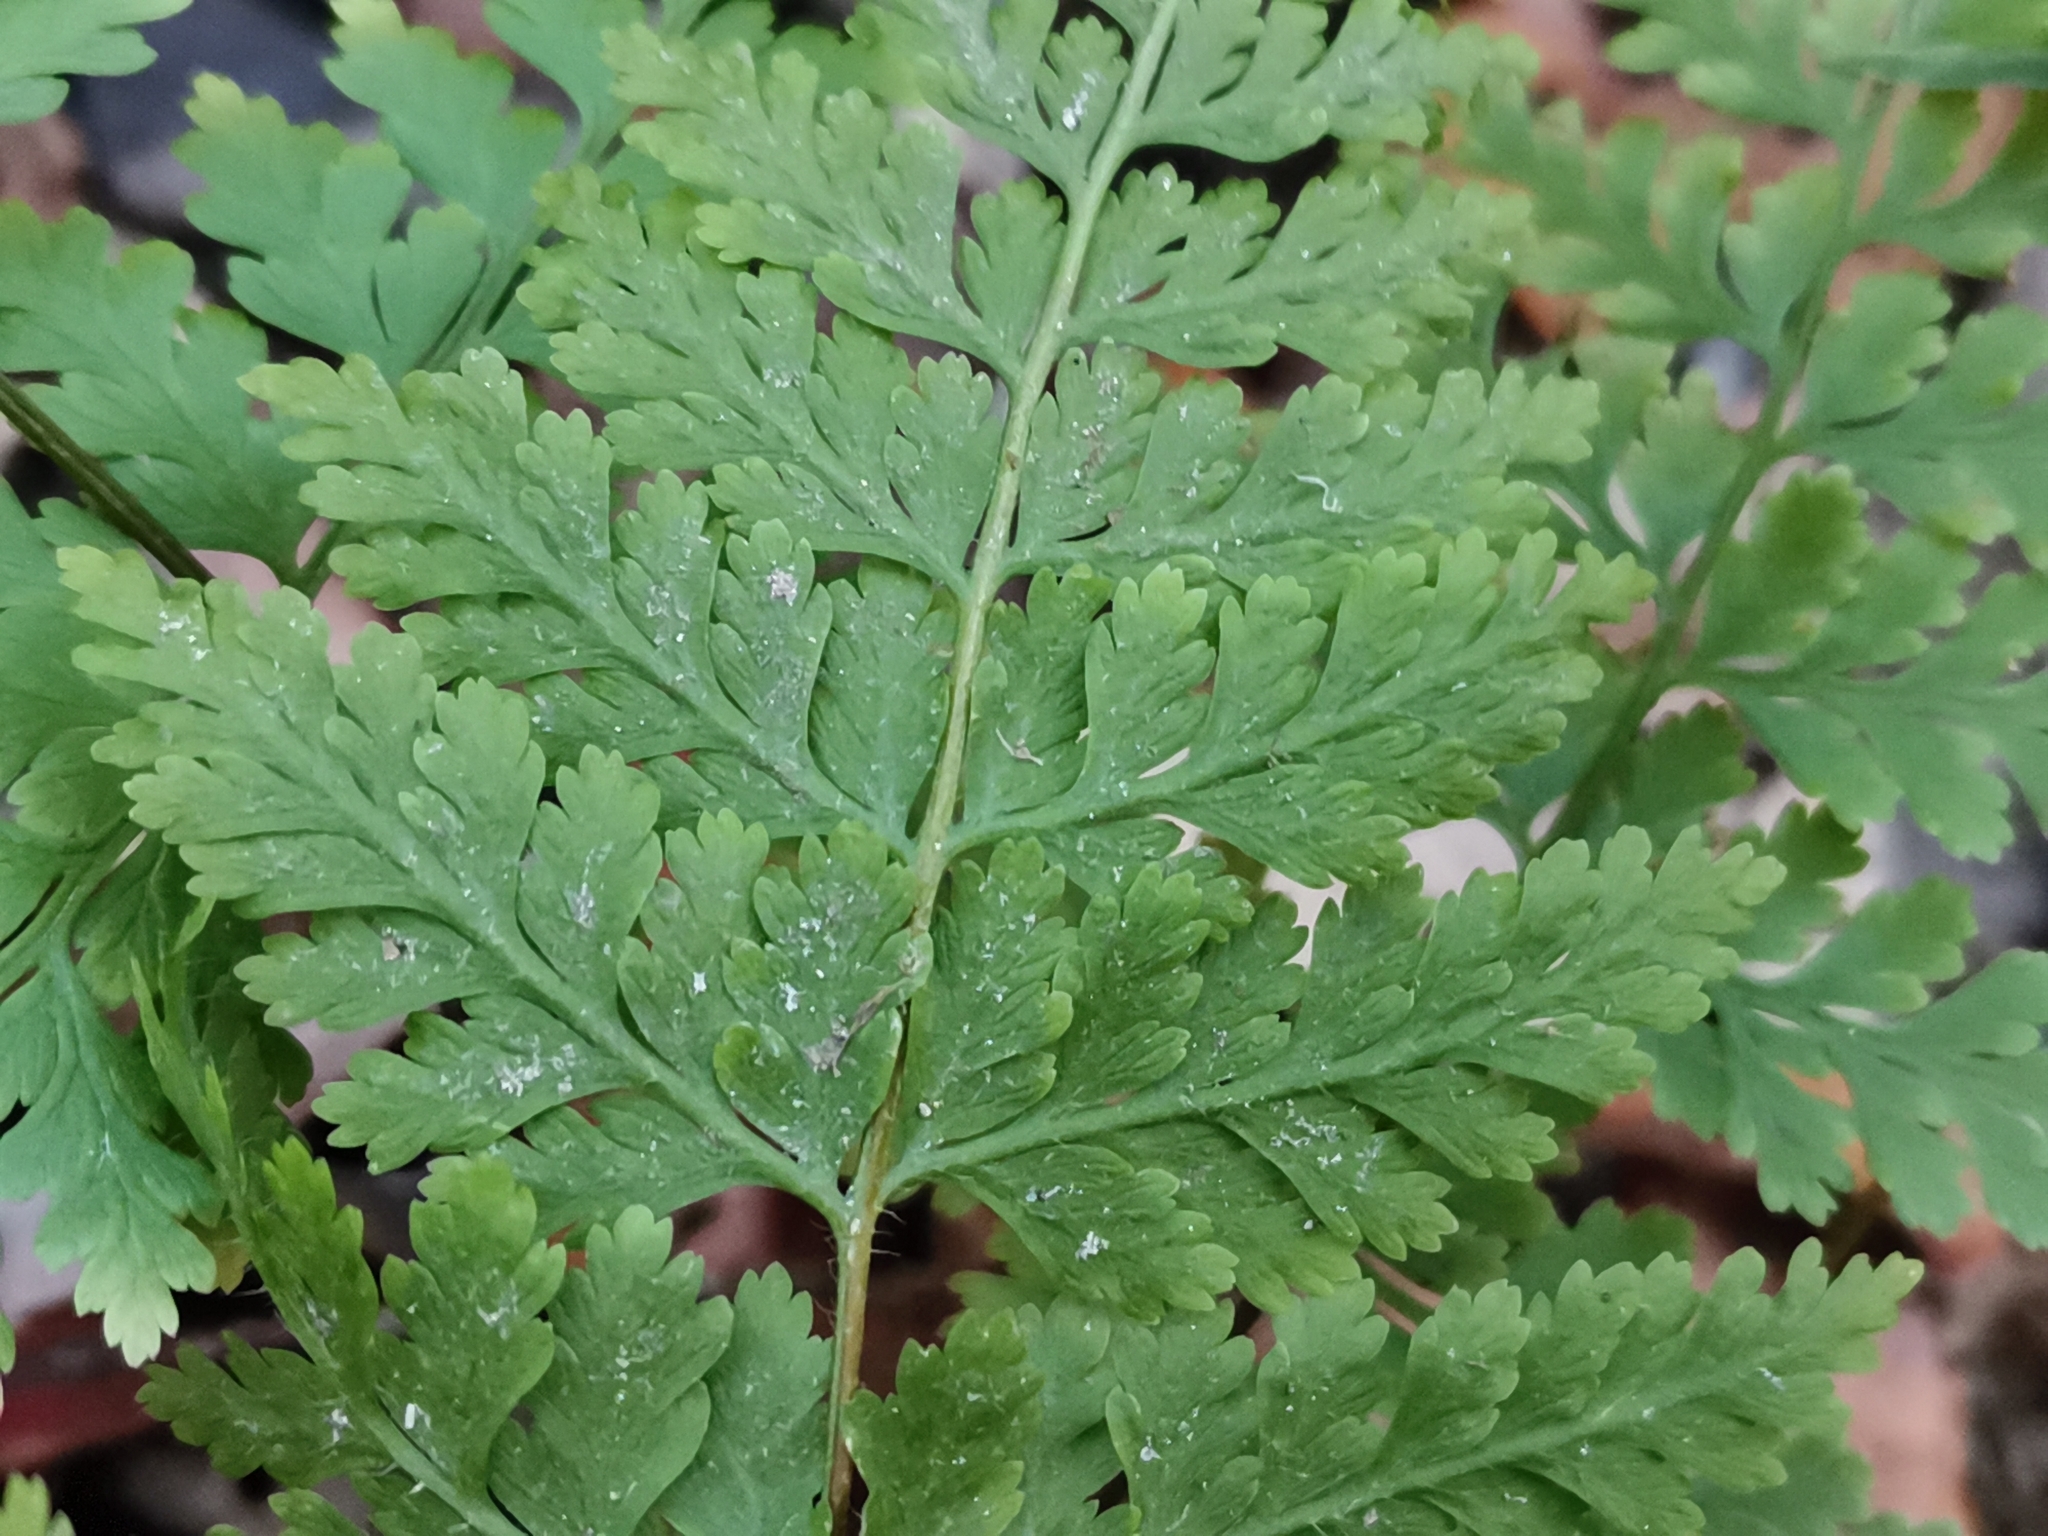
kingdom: Plantae
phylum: Tracheophyta
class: Polypodiopsida
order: Polypodiales
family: Dennstaedtiaceae
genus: Sitobolium
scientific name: Sitobolium zeylanicum
